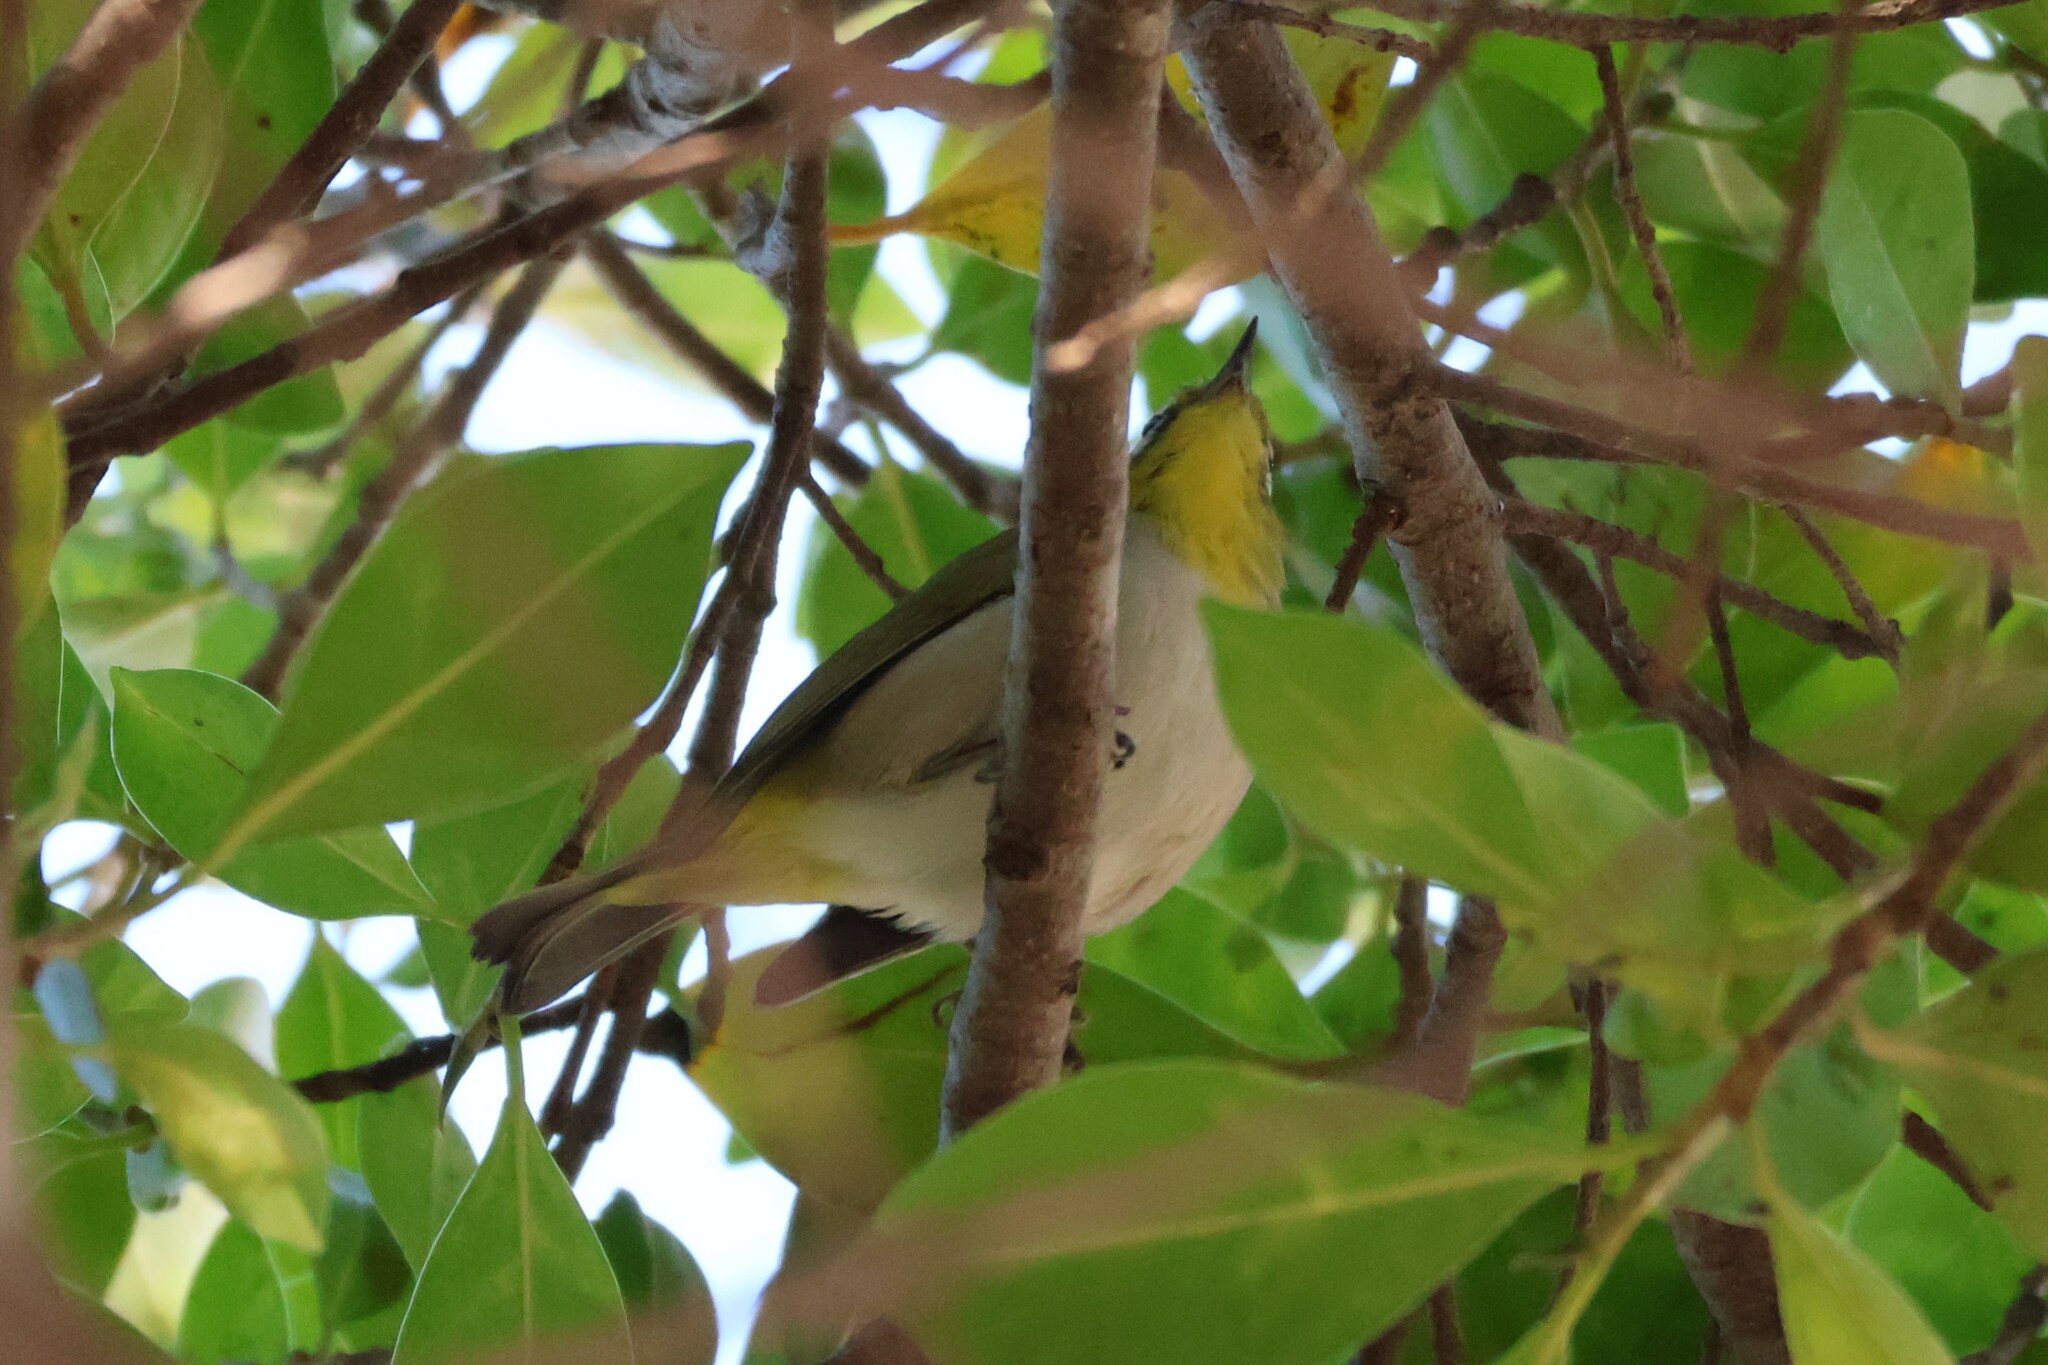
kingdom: Animalia
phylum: Chordata
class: Aves
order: Passeriformes
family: Zosteropidae
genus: Zosterops
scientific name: Zosterops simplex
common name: Swinhoe's white-eye
